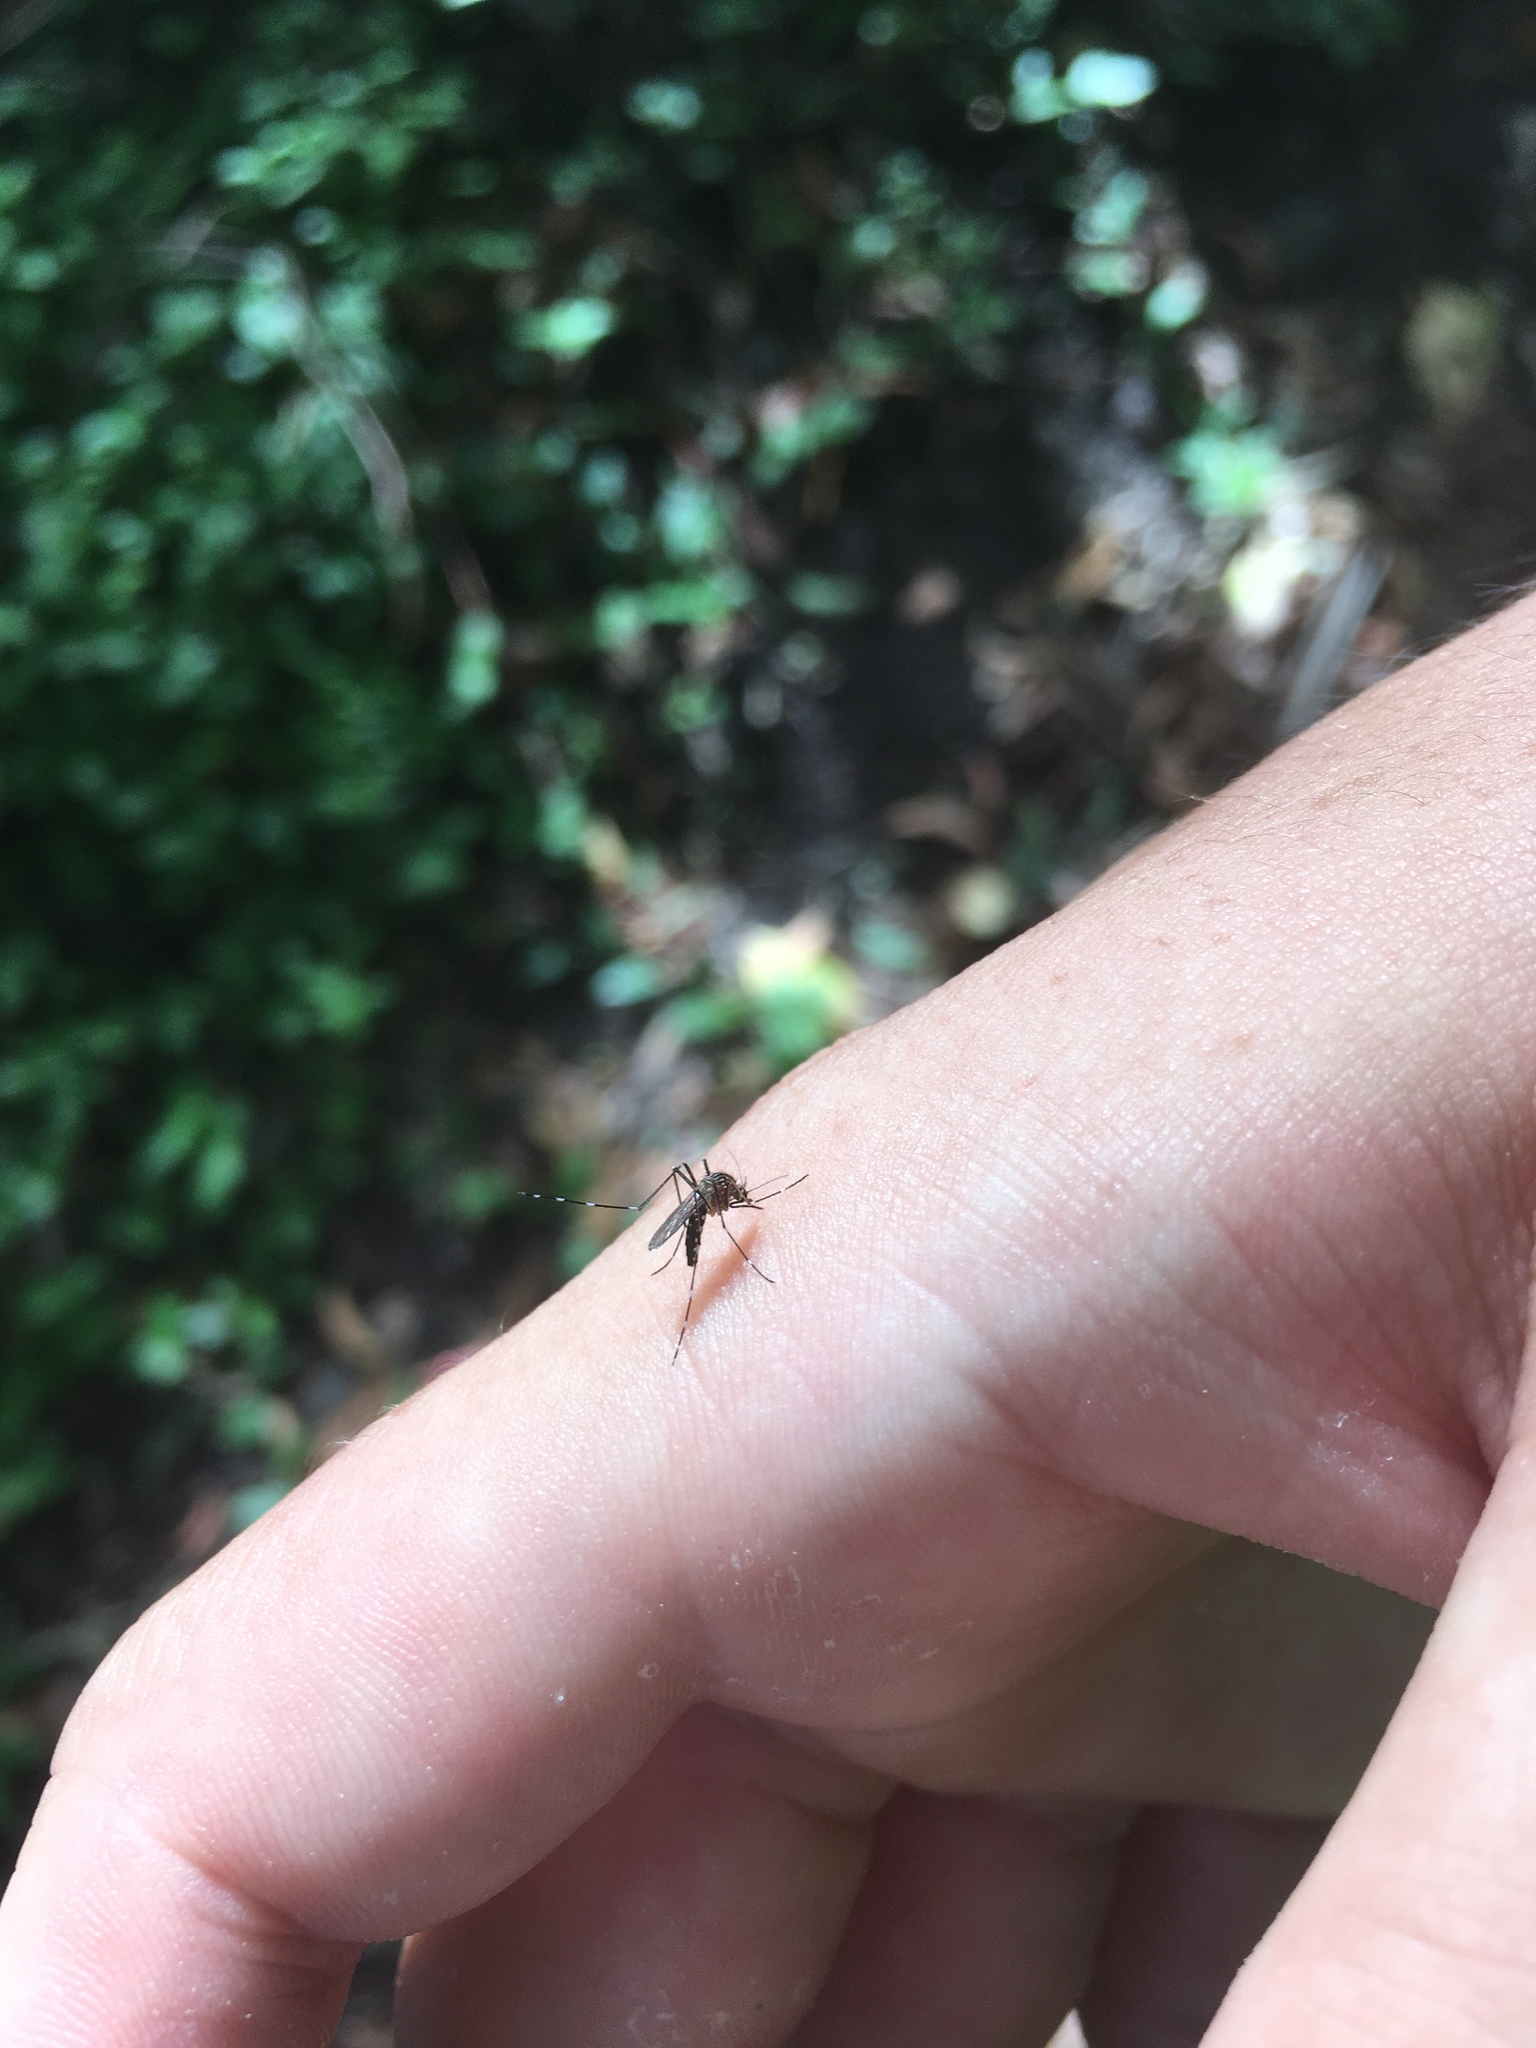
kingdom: Animalia
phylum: Arthropoda
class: Insecta
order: Diptera
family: Culicidae
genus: Aedes
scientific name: Aedes notoscriptus
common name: Australian backyard mosquito
